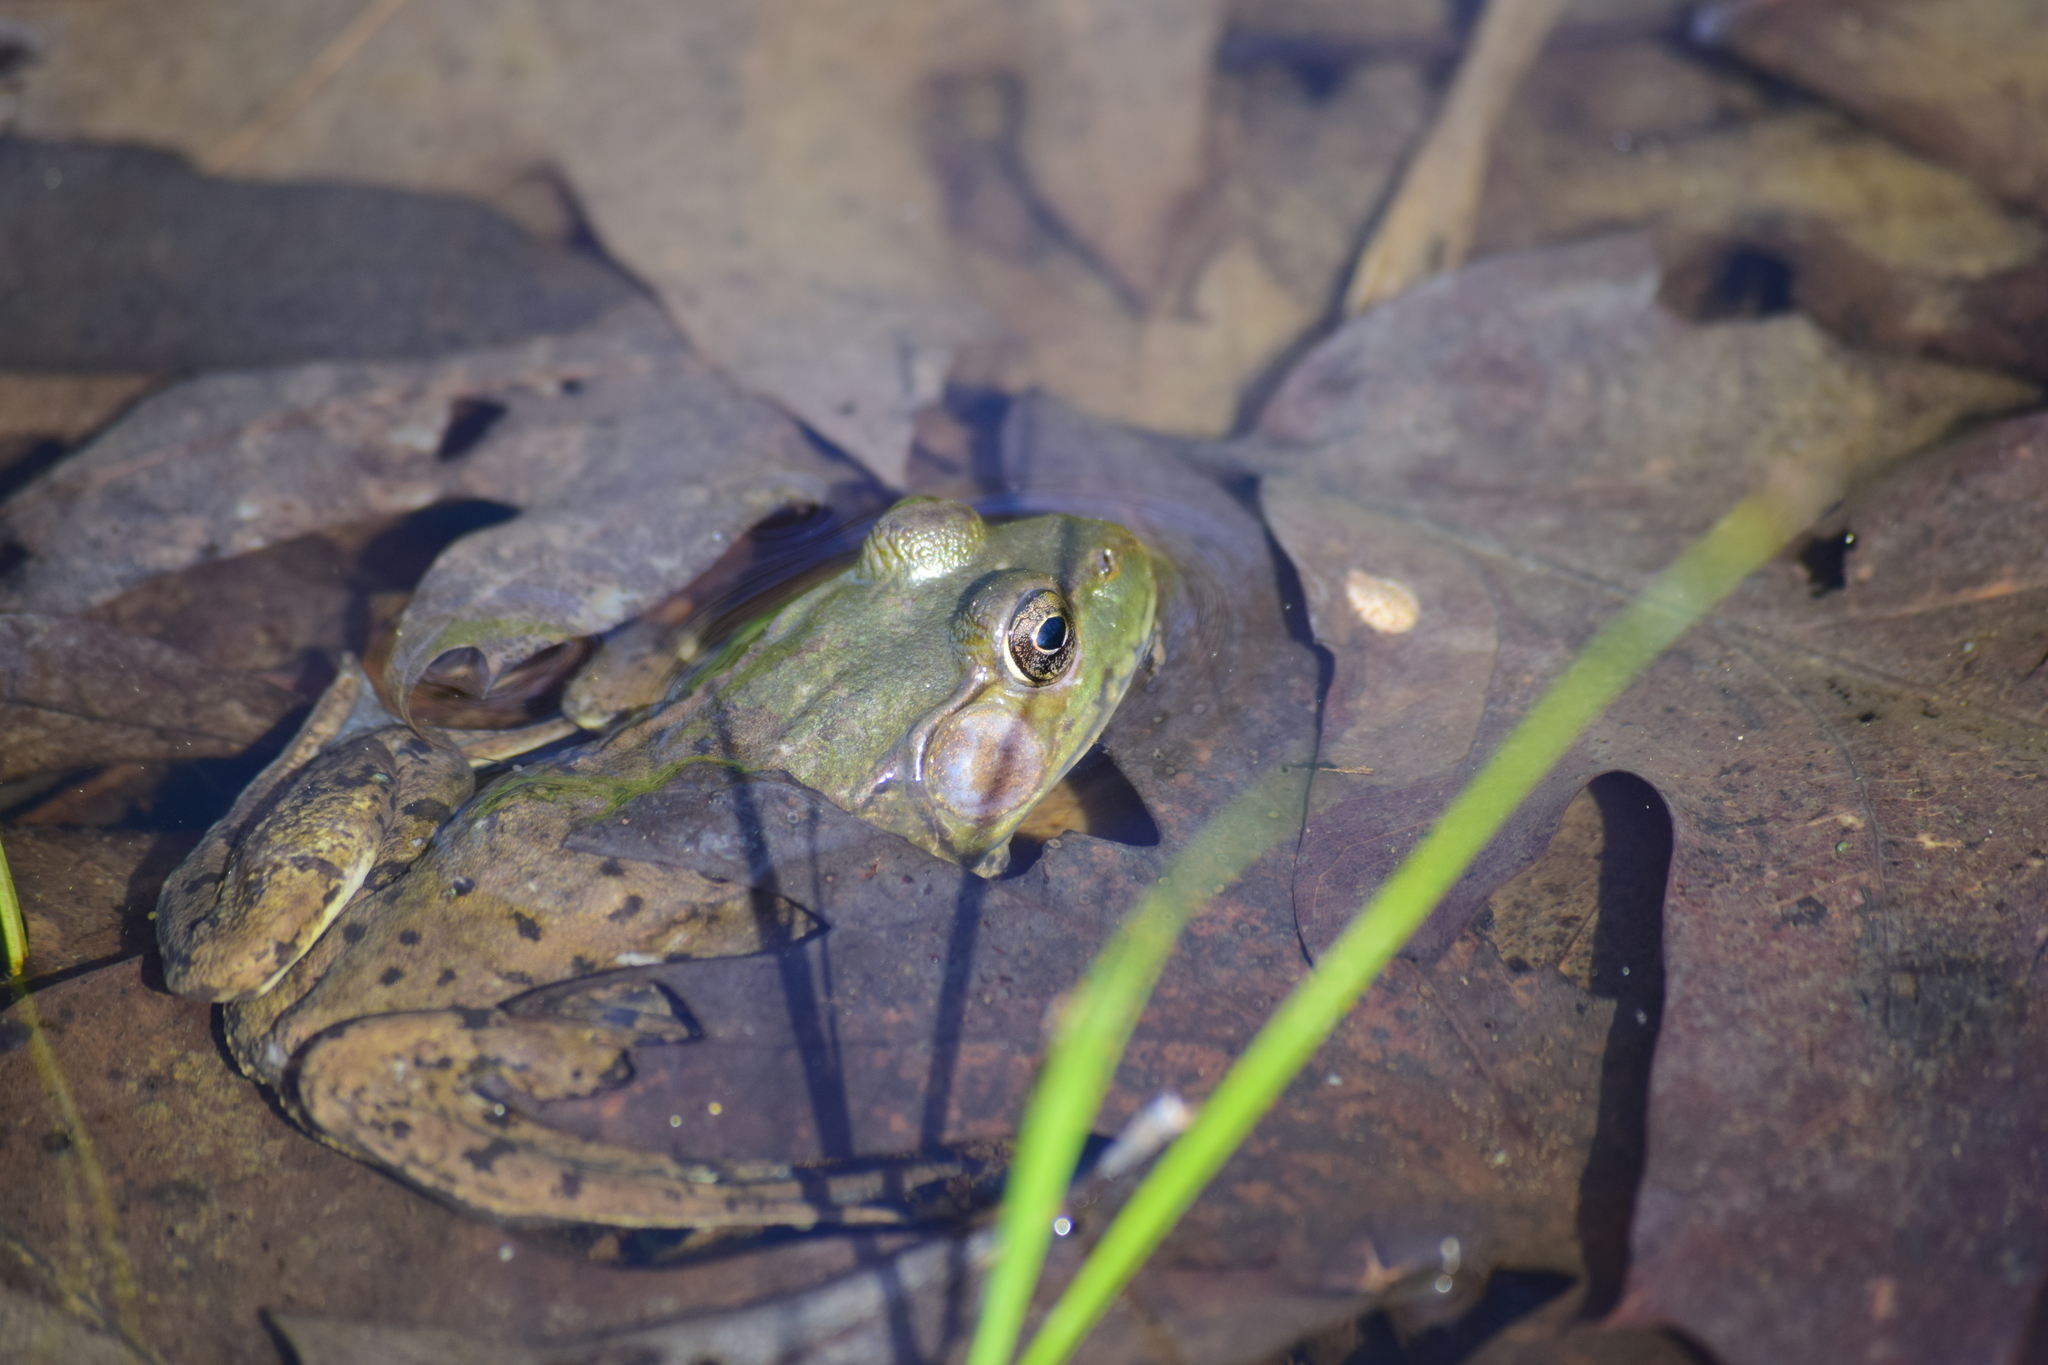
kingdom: Animalia
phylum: Chordata
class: Amphibia
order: Anura
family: Ranidae
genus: Lithobates
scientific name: Lithobates clamitans
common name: Green frog
